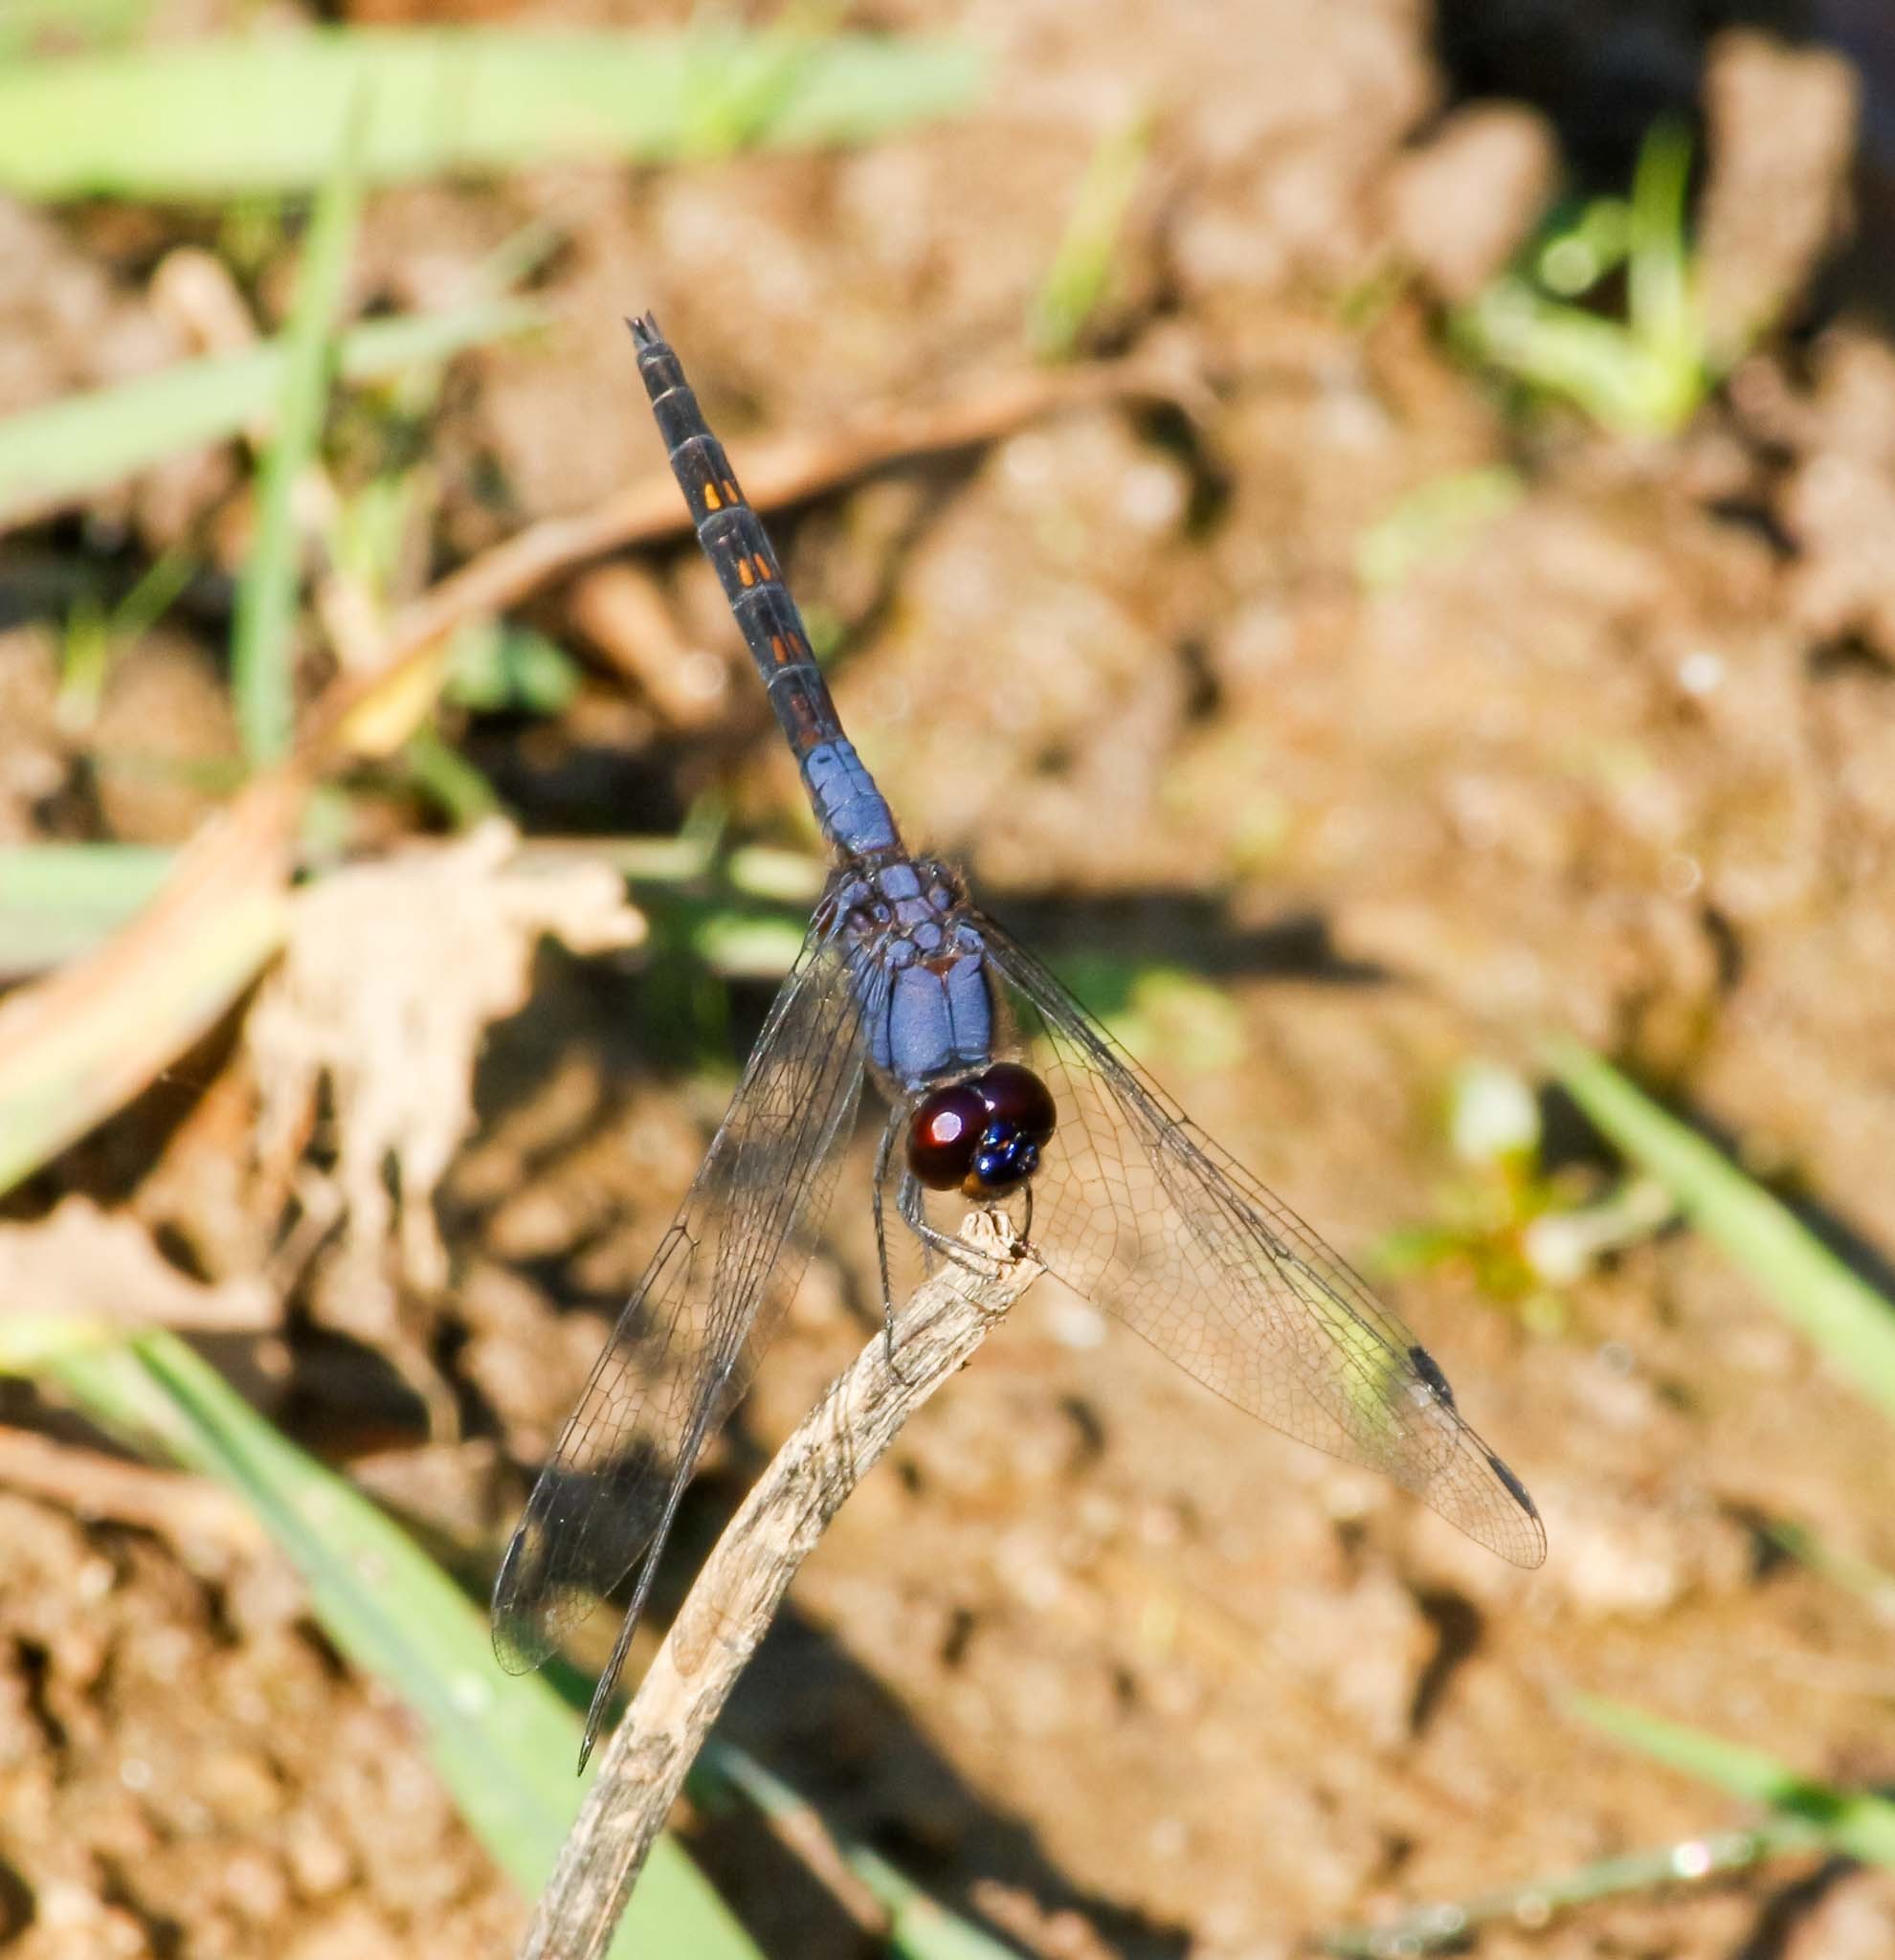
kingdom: Animalia
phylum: Arthropoda
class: Insecta
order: Odonata
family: Libellulidae
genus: Trithemis
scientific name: Trithemis festiva
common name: Indigo dropwing
